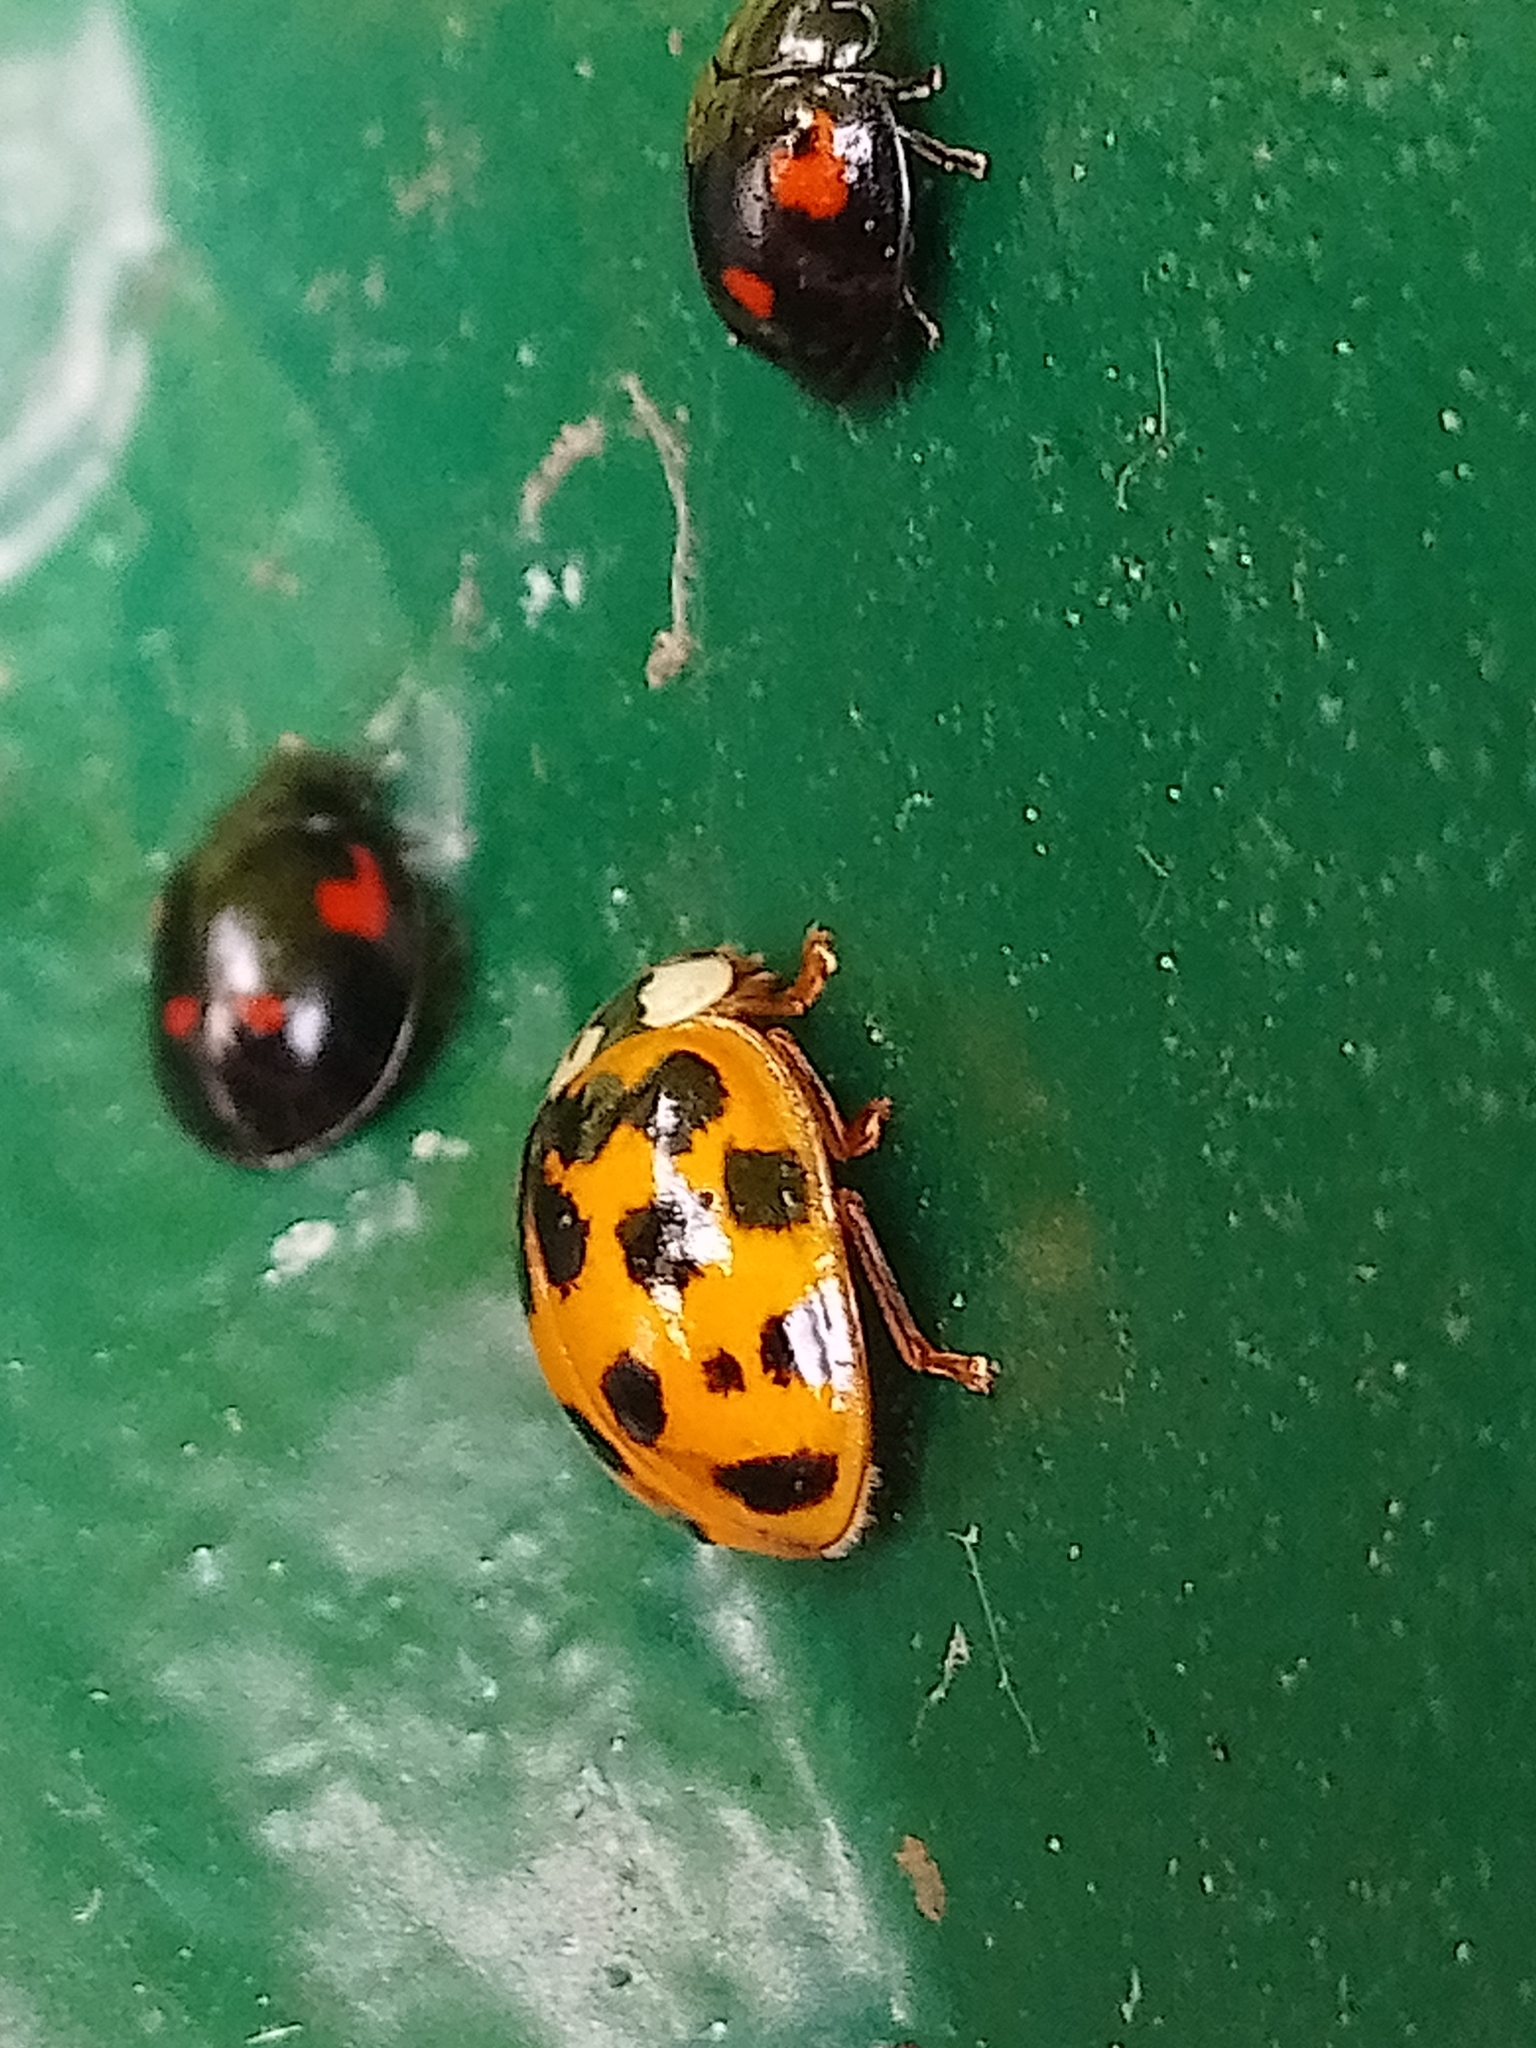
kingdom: Animalia
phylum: Arthropoda
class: Insecta
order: Coleoptera
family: Coccinellidae
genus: Harmonia
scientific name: Harmonia axyridis
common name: Harlequin ladybird
